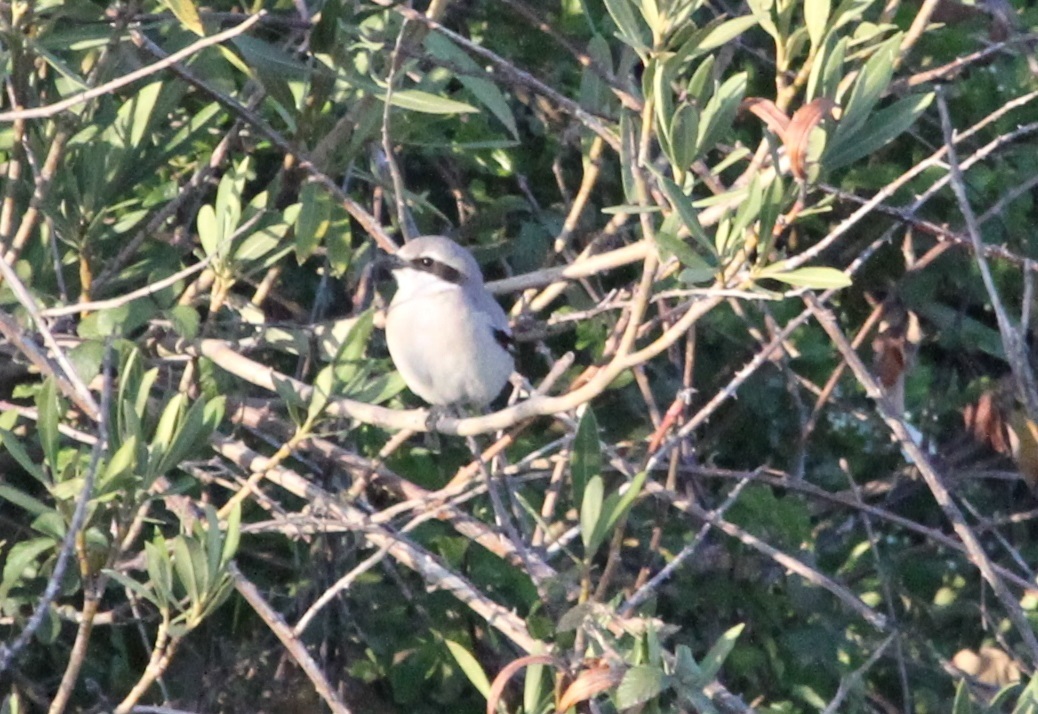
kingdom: Animalia
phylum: Chordata
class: Aves
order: Passeriformes
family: Laniidae
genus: Lanius
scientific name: Lanius excubitor
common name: Great grey shrike
